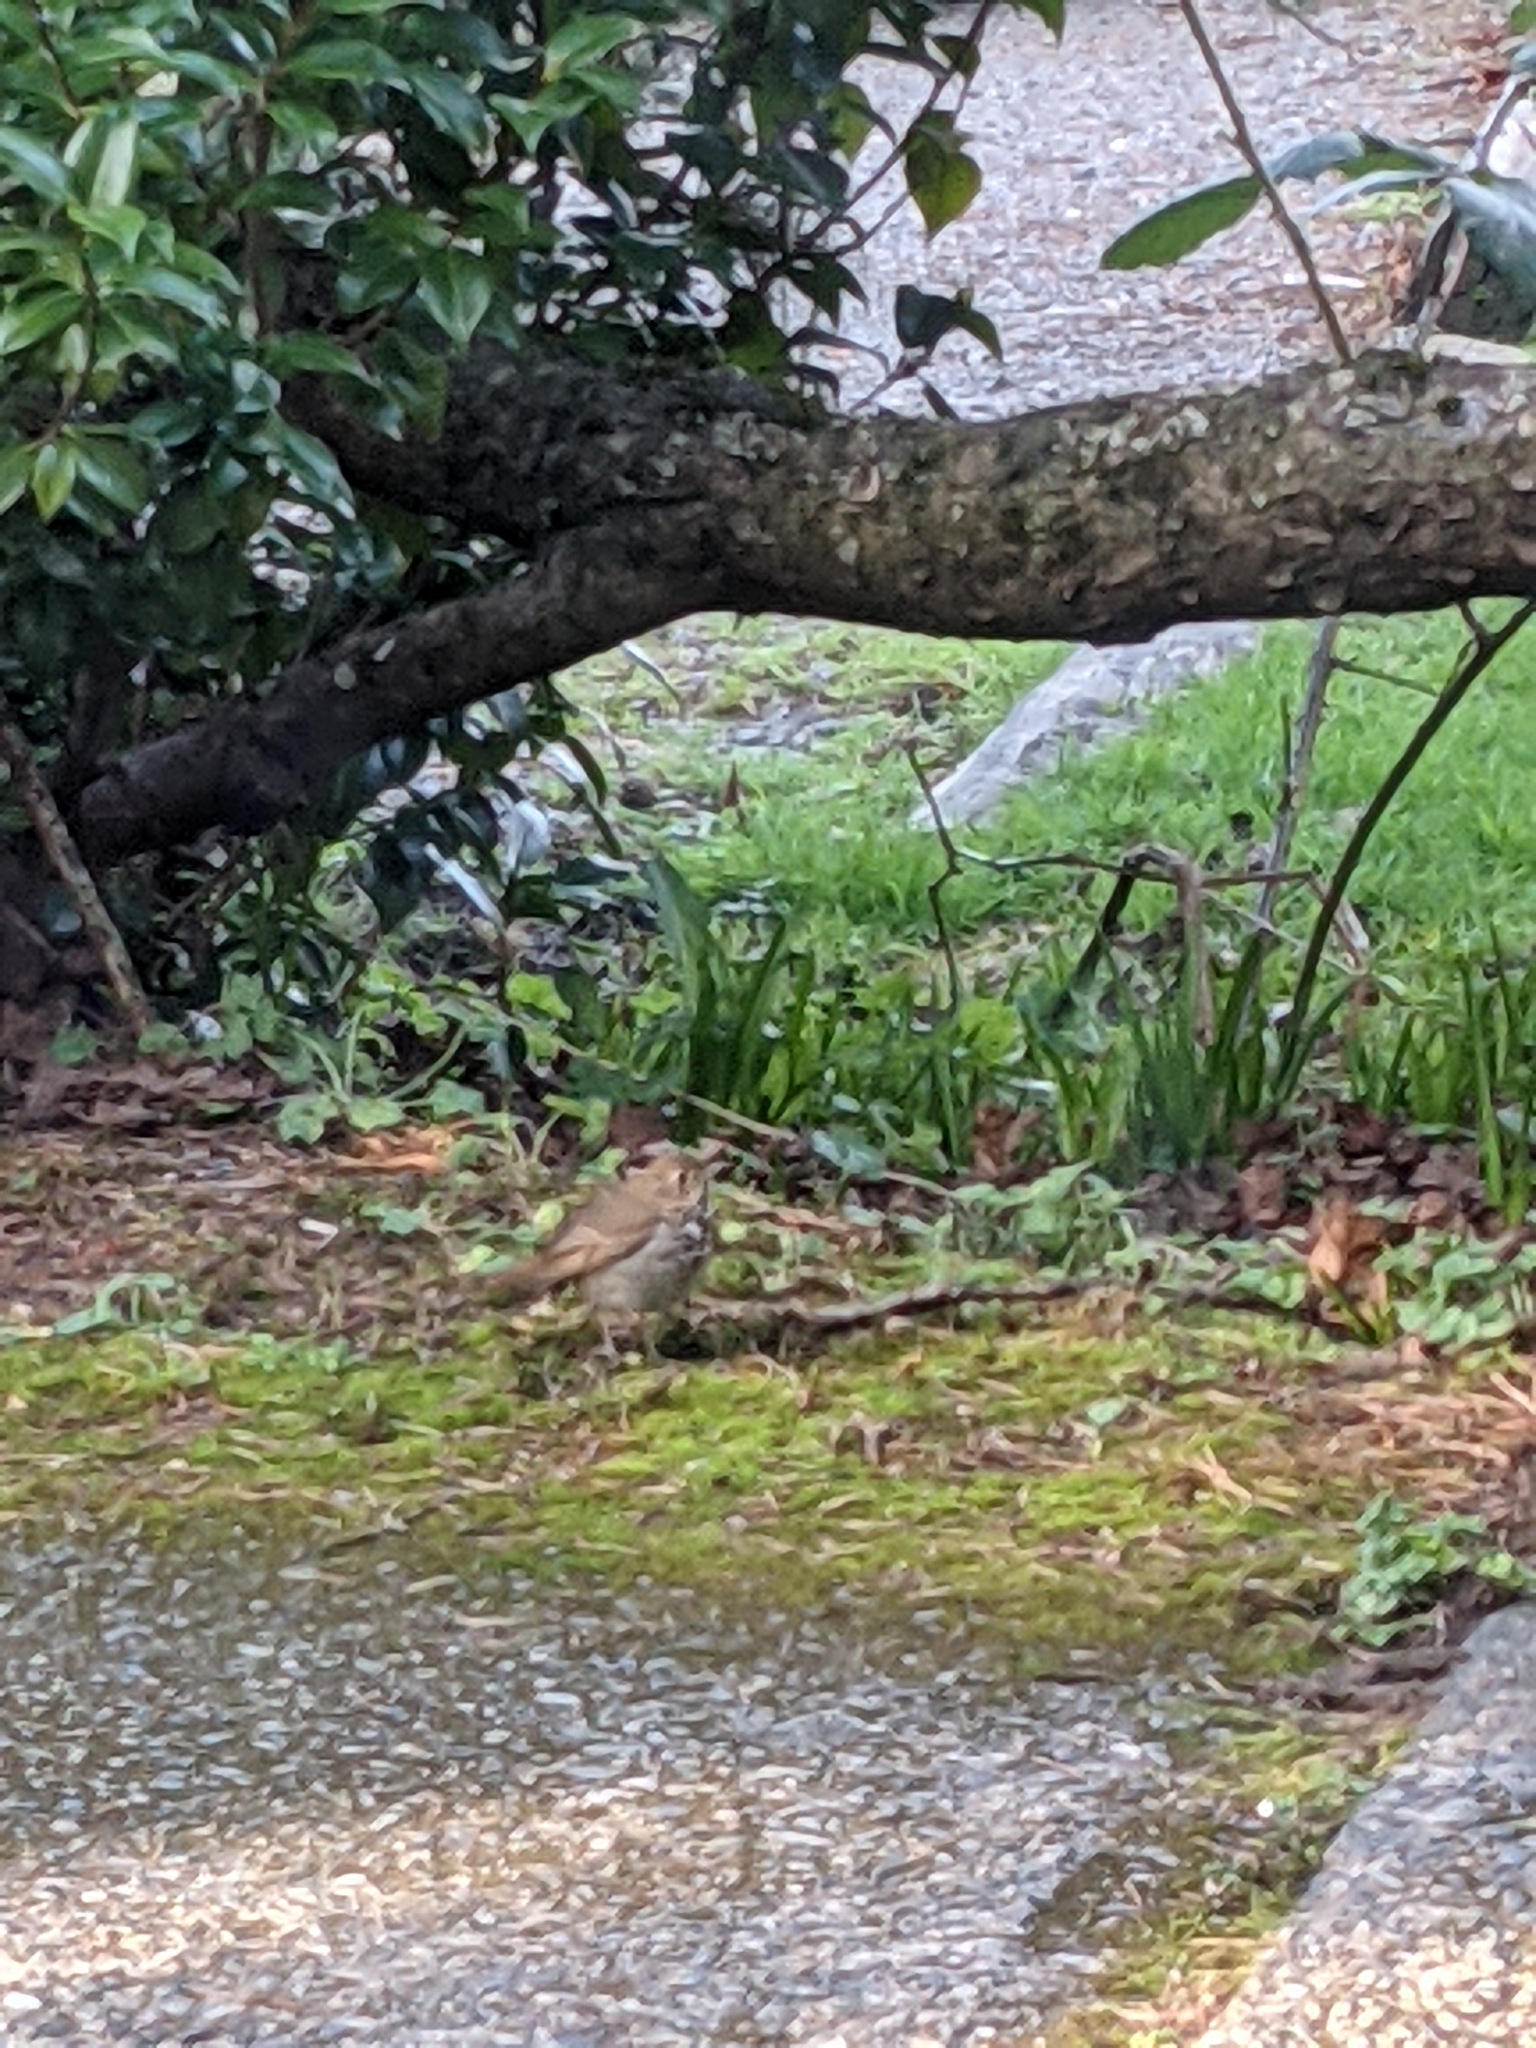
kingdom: Animalia
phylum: Chordata
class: Aves
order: Passeriformes
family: Turdidae
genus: Catharus
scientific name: Catharus guttatus
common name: Hermit thrush
